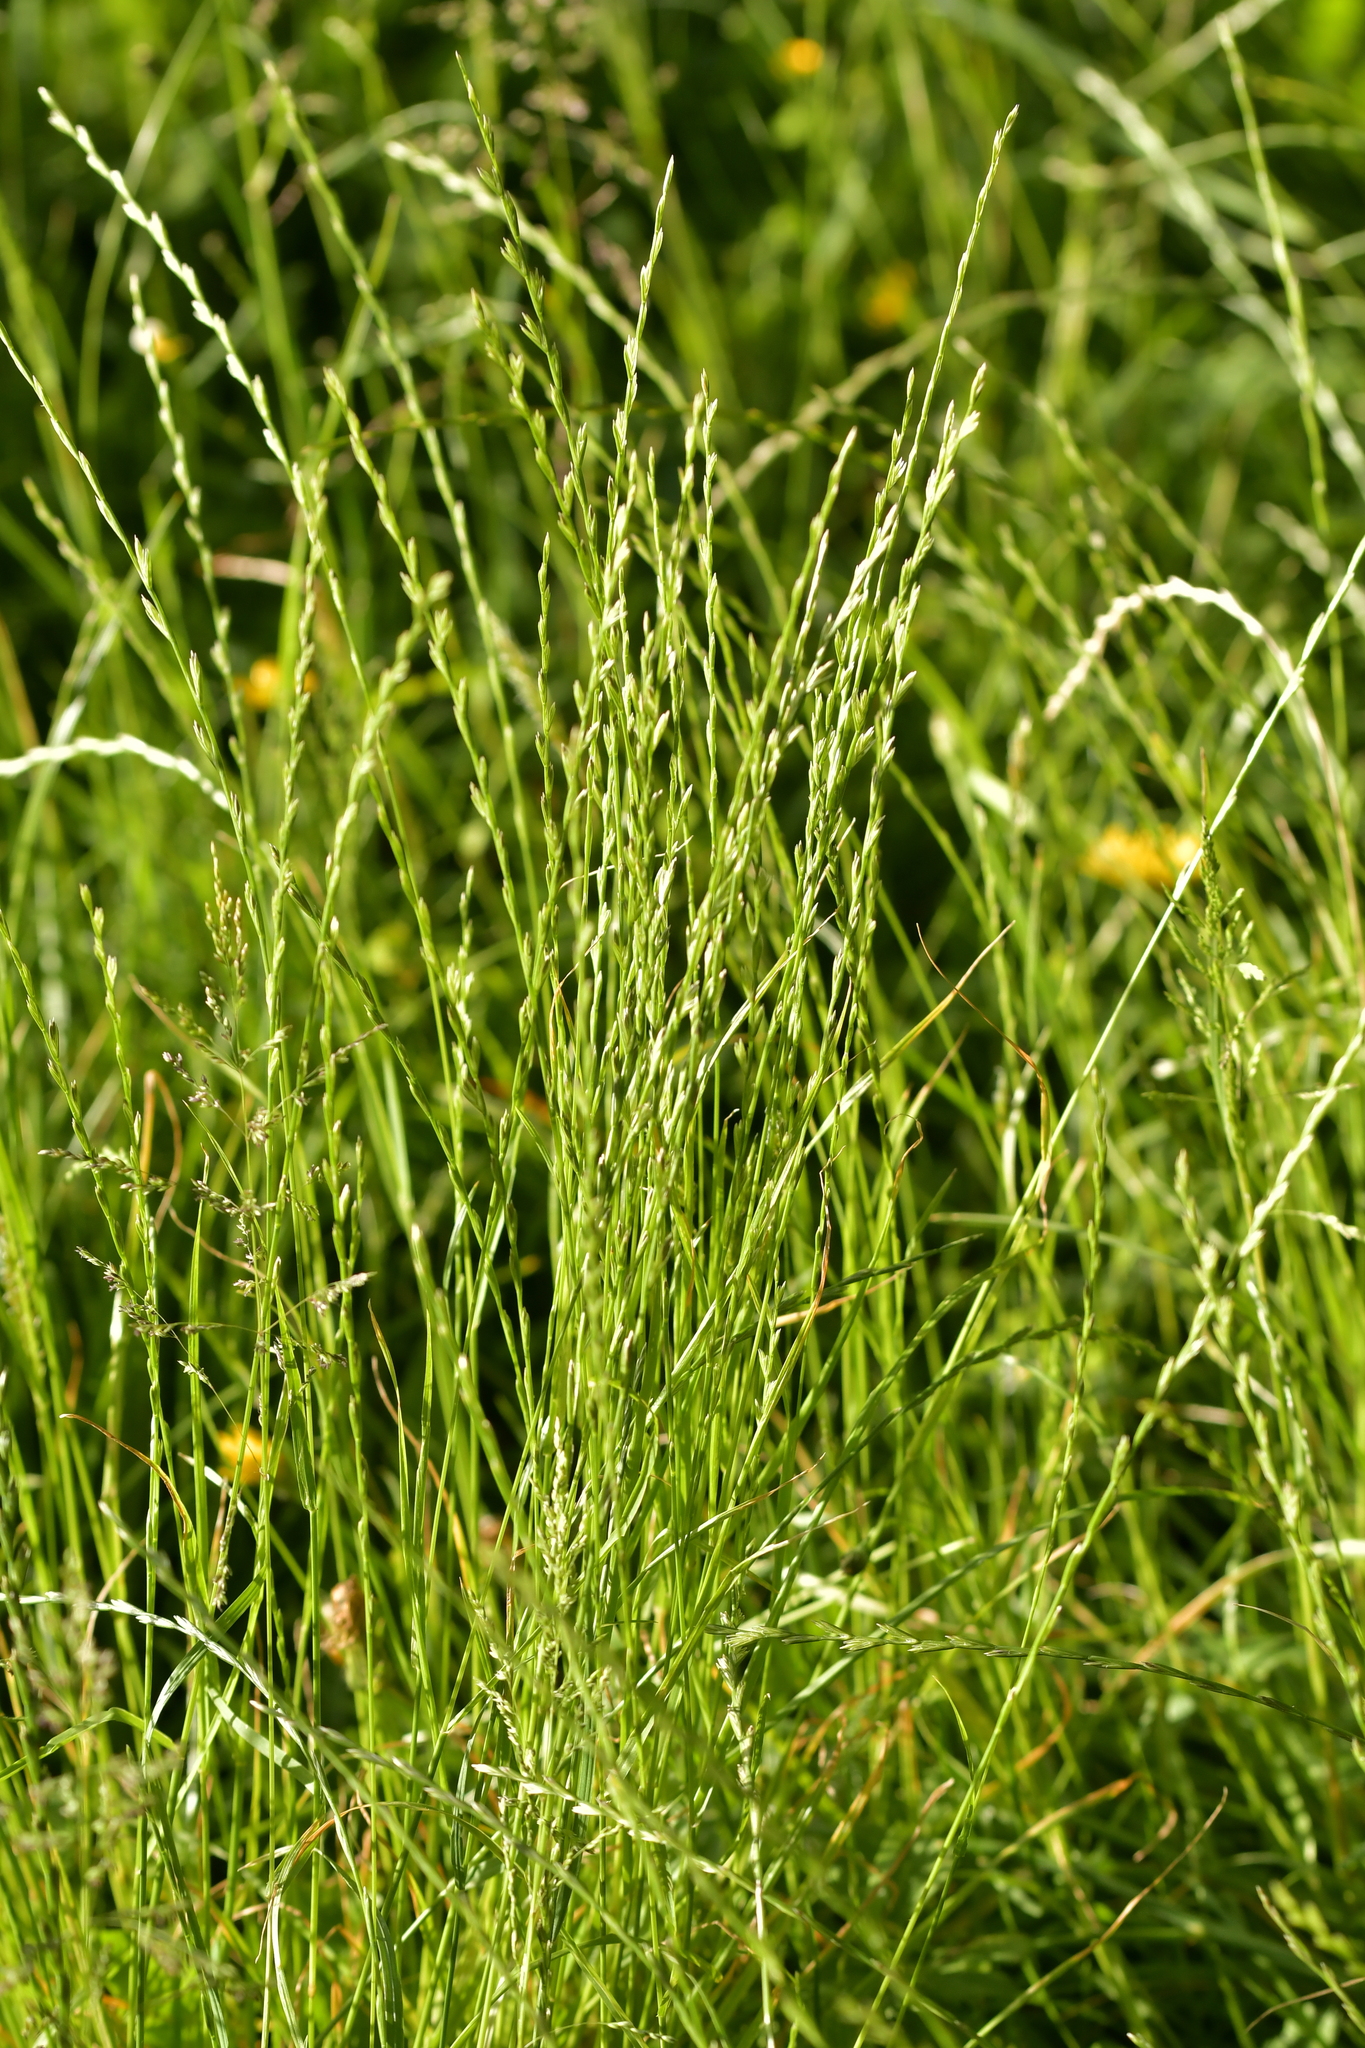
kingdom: Plantae
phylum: Tracheophyta
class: Liliopsida
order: Poales
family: Poaceae
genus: Lolium
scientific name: Lolium perenne
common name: Perennial ryegrass
